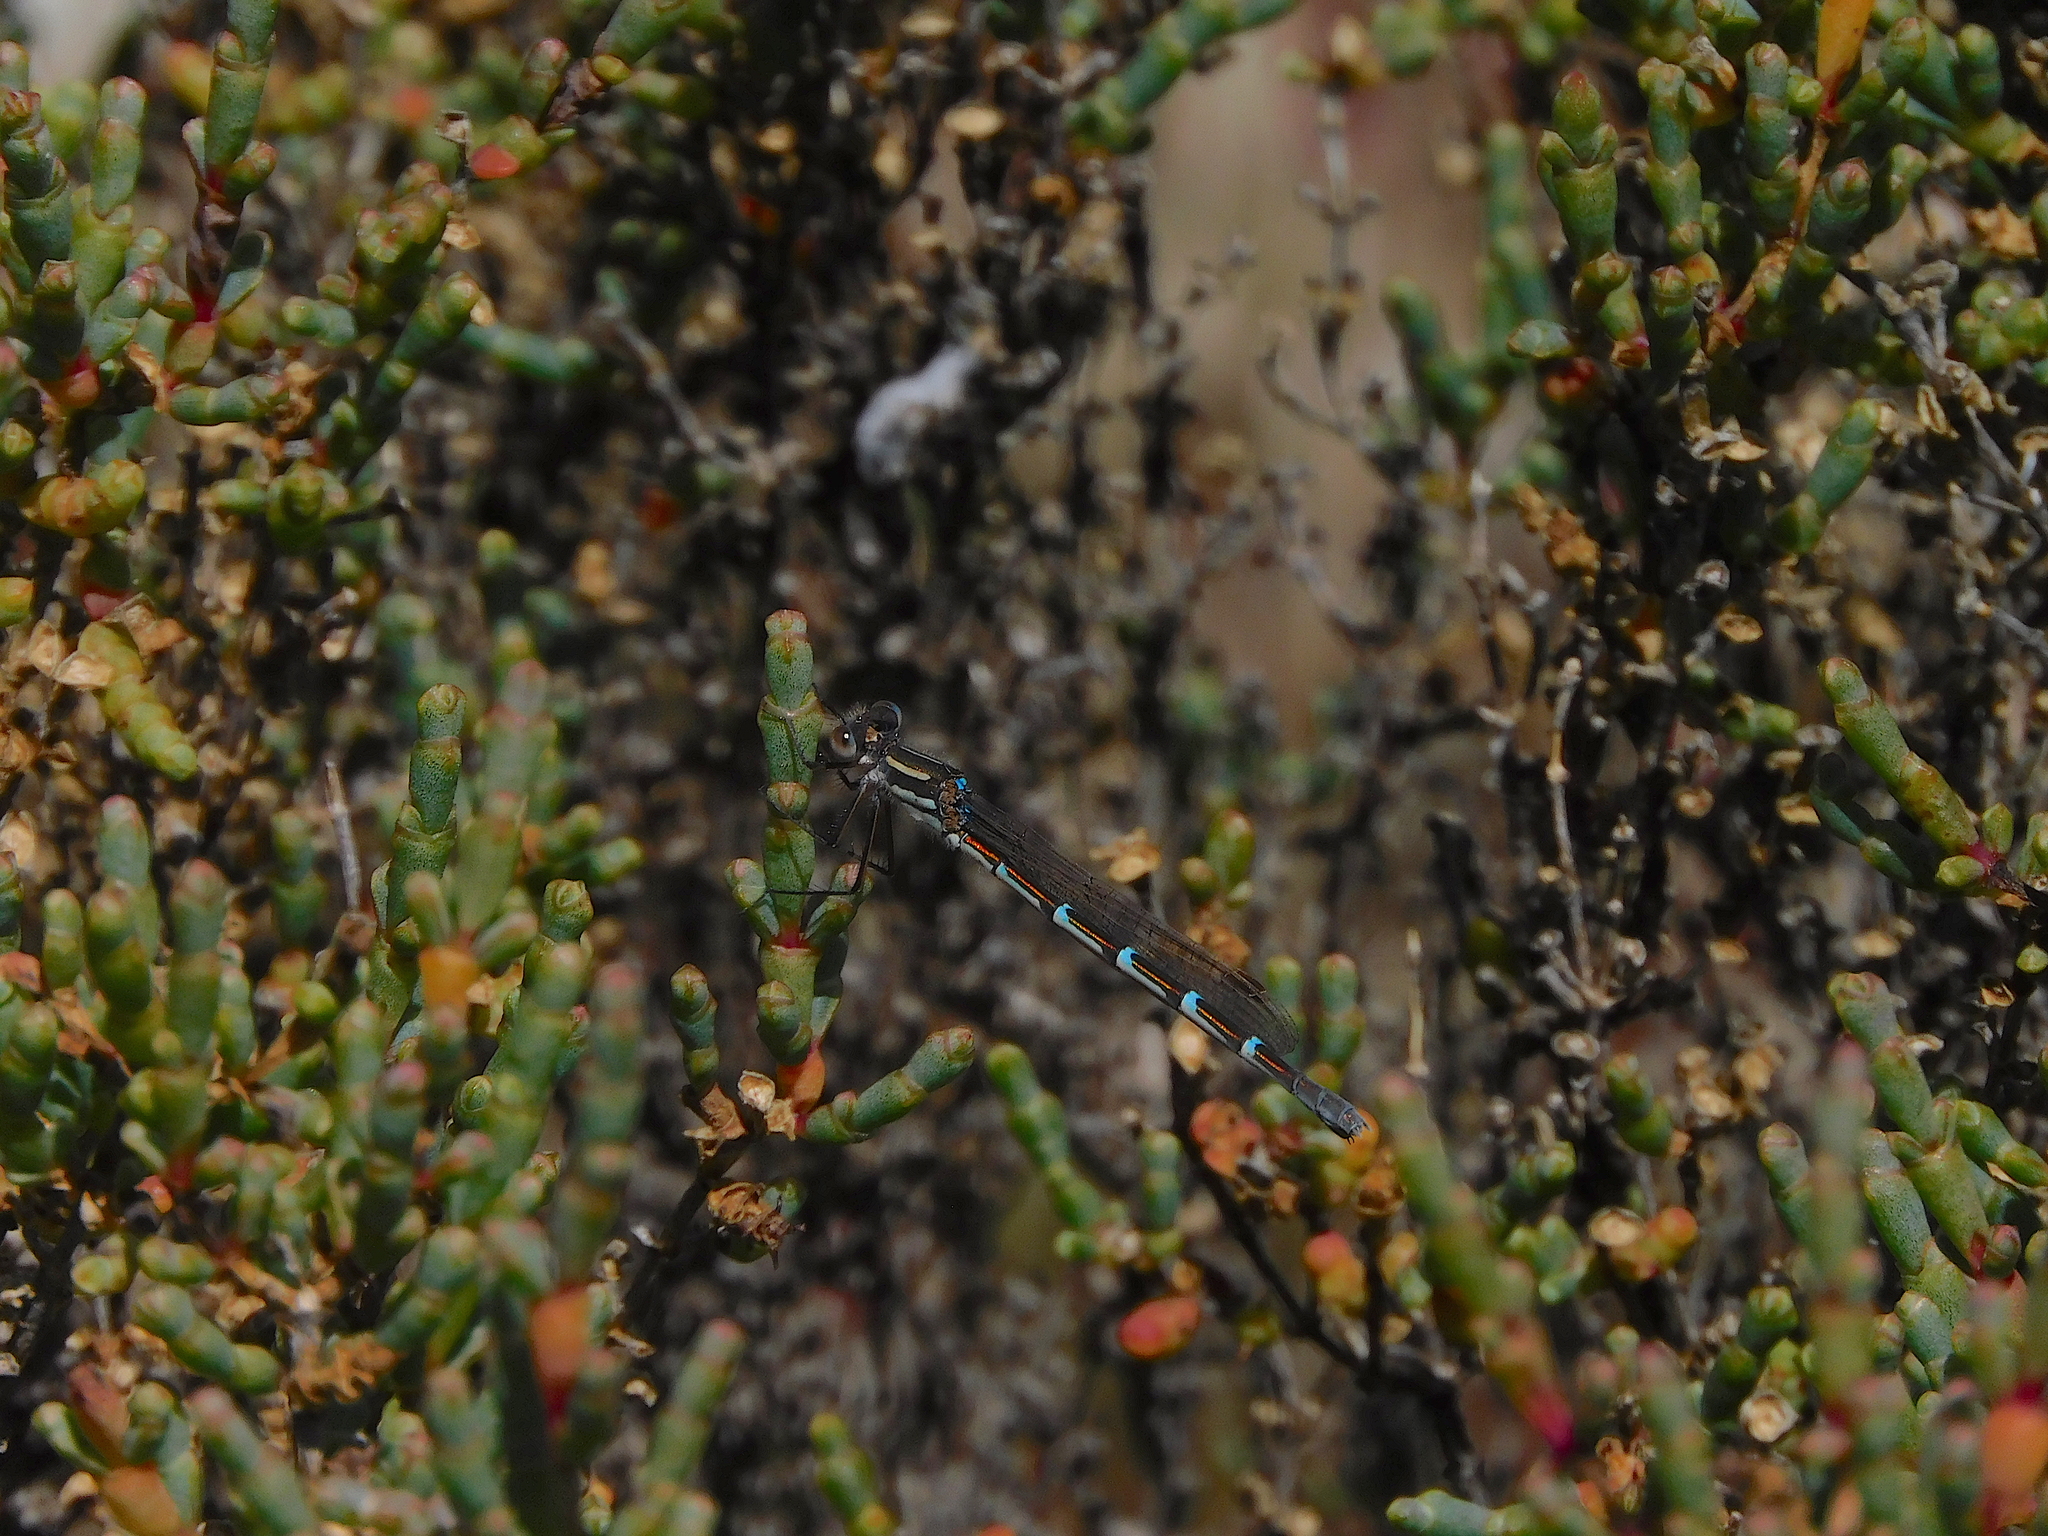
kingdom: Animalia
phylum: Arthropoda
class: Insecta
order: Odonata
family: Lestidae
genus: Austrolestes
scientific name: Austrolestes annulosus
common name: Blue ringtail
